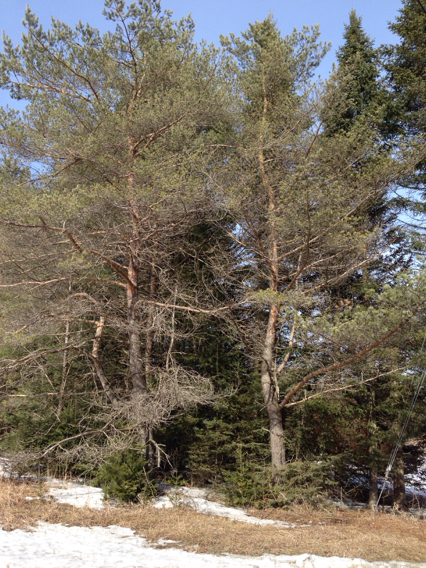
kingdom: Plantae
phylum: Tracheophyta
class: Pinopsida
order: Pinales
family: Pinaceae
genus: Pinus
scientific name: Pinus sylvestris
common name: Scots pine
